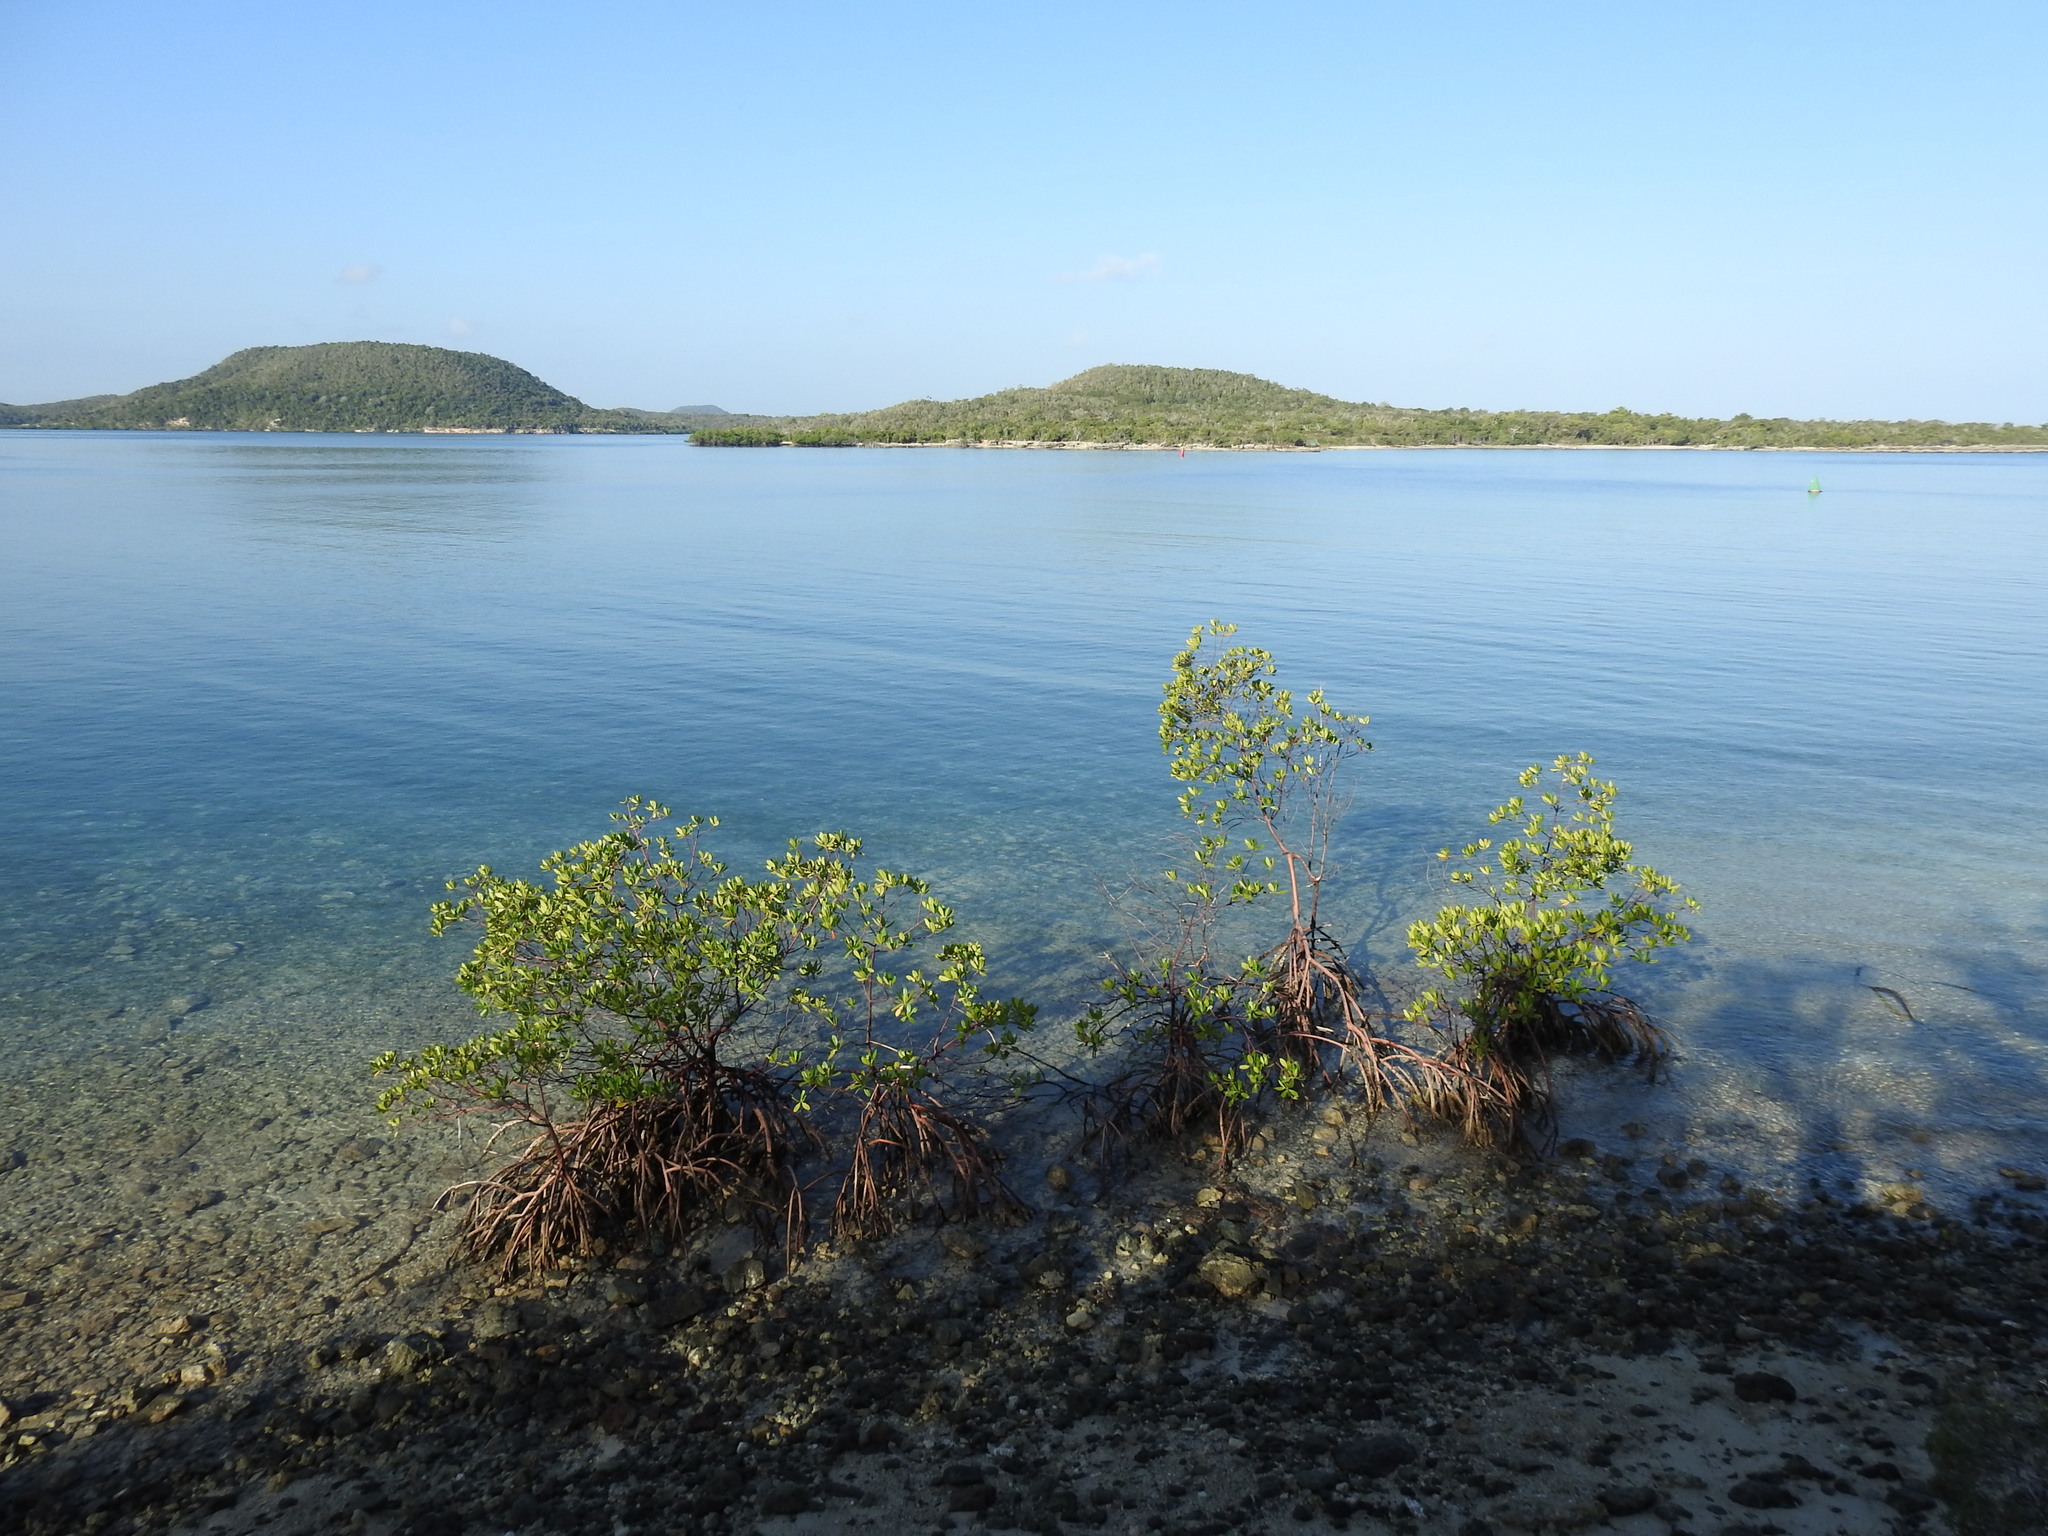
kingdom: Plantae
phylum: Tracheophyta
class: Magnoliopsida
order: Malpighiales
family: Rhizophoraceae
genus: Rhizophora
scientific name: Rhizophora mangle
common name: Red mangrove
